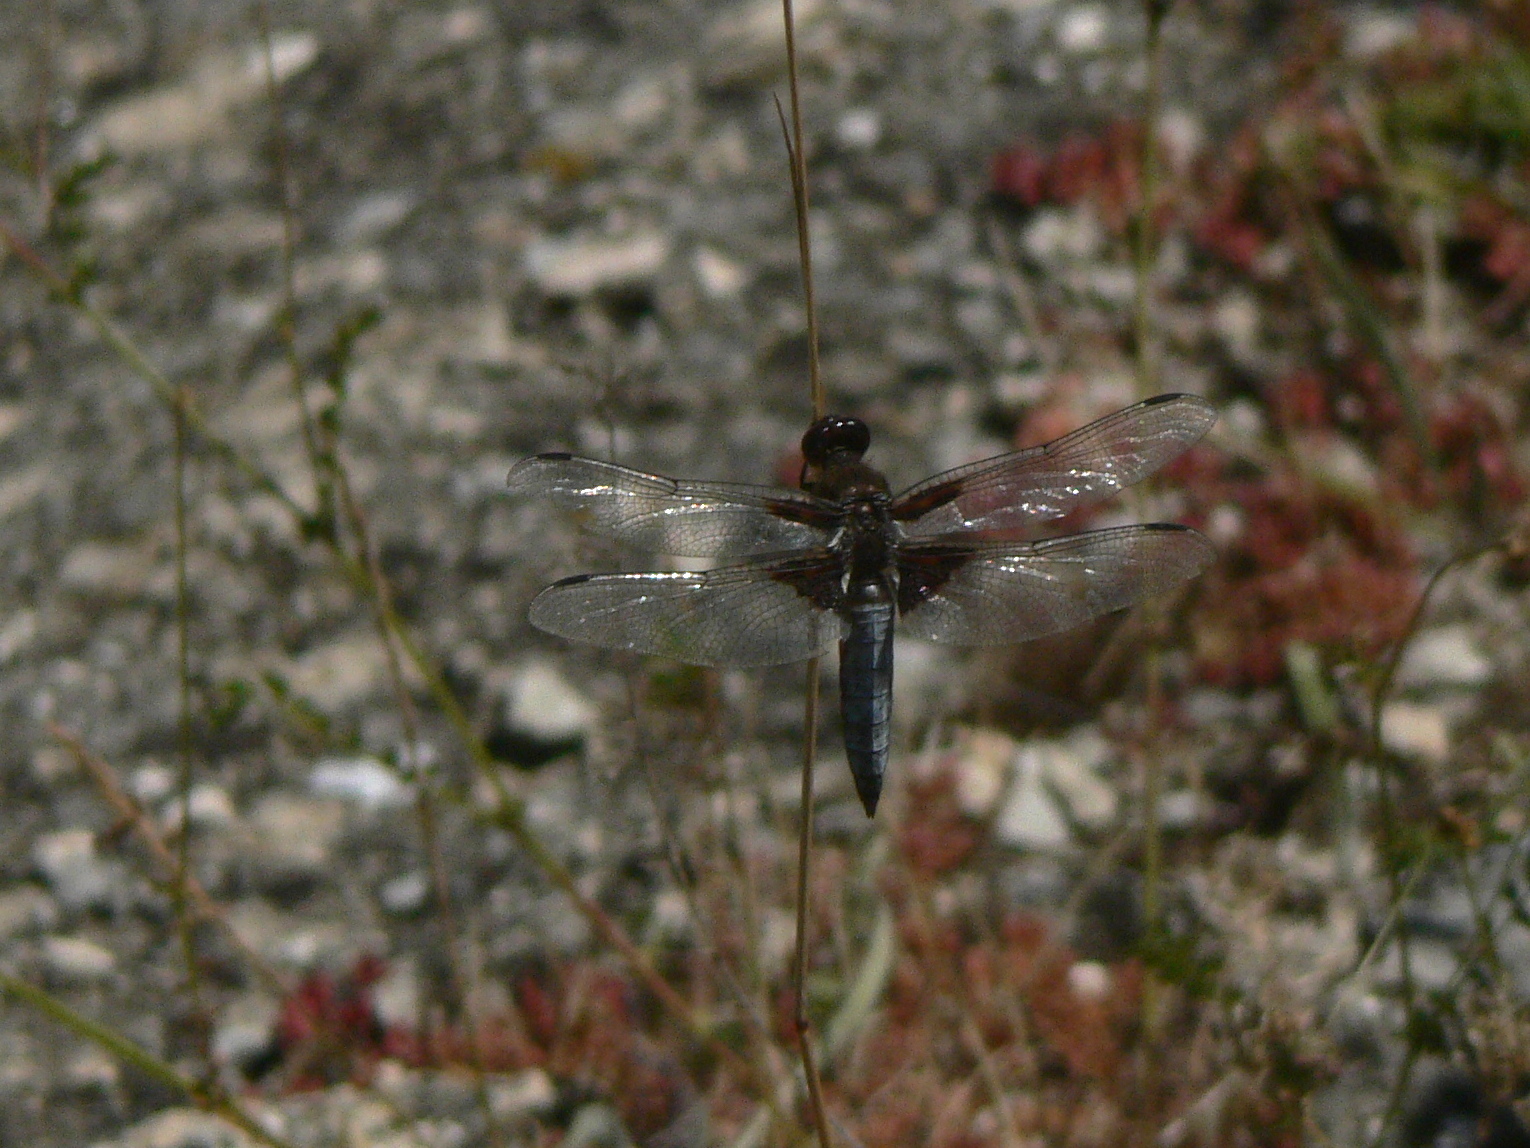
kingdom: Animalia
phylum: Arthropoda
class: Insecta
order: Odonata
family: Libellulidae
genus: Libellula
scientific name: Libellula depressa
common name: Broad-bodied chaser
